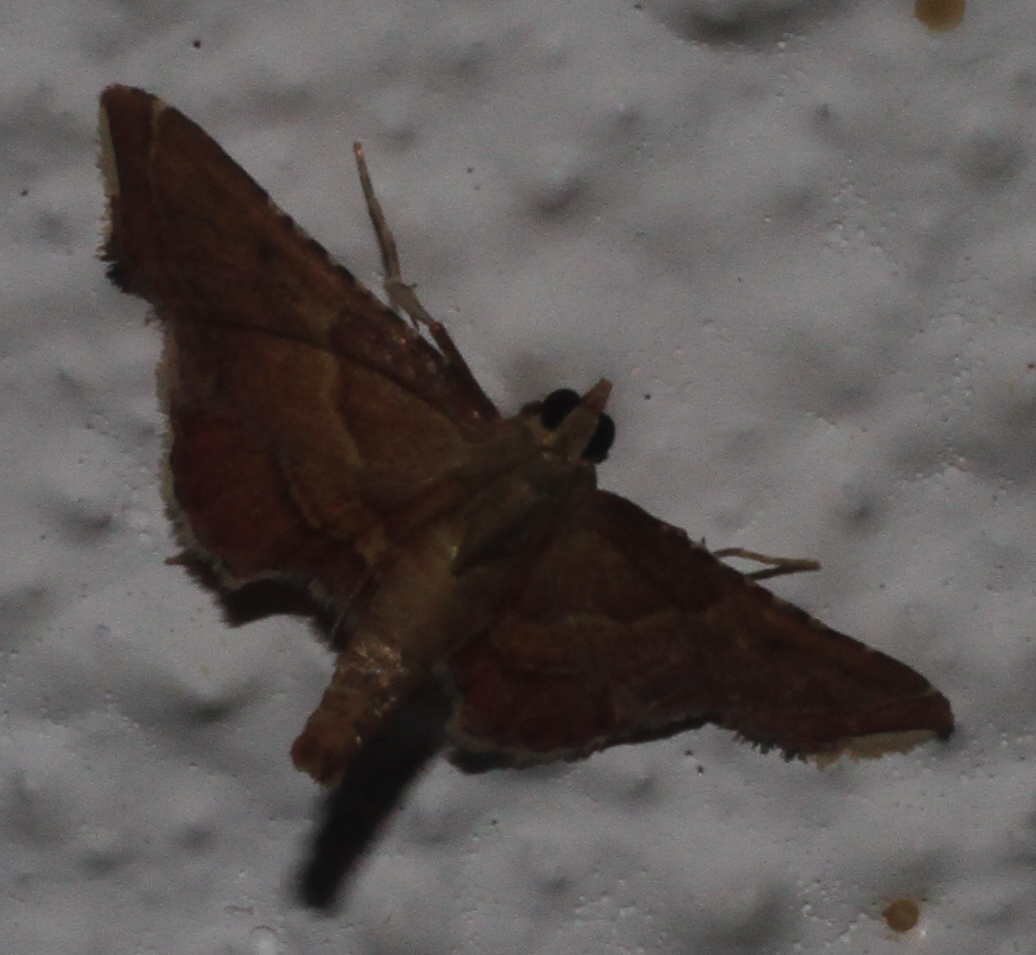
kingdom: Animalia
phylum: Arthropoda
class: Insecta
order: Lepidoptera
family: Pyralidae
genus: Endotricha
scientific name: Endotricha flammealis
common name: Rosy tabby
